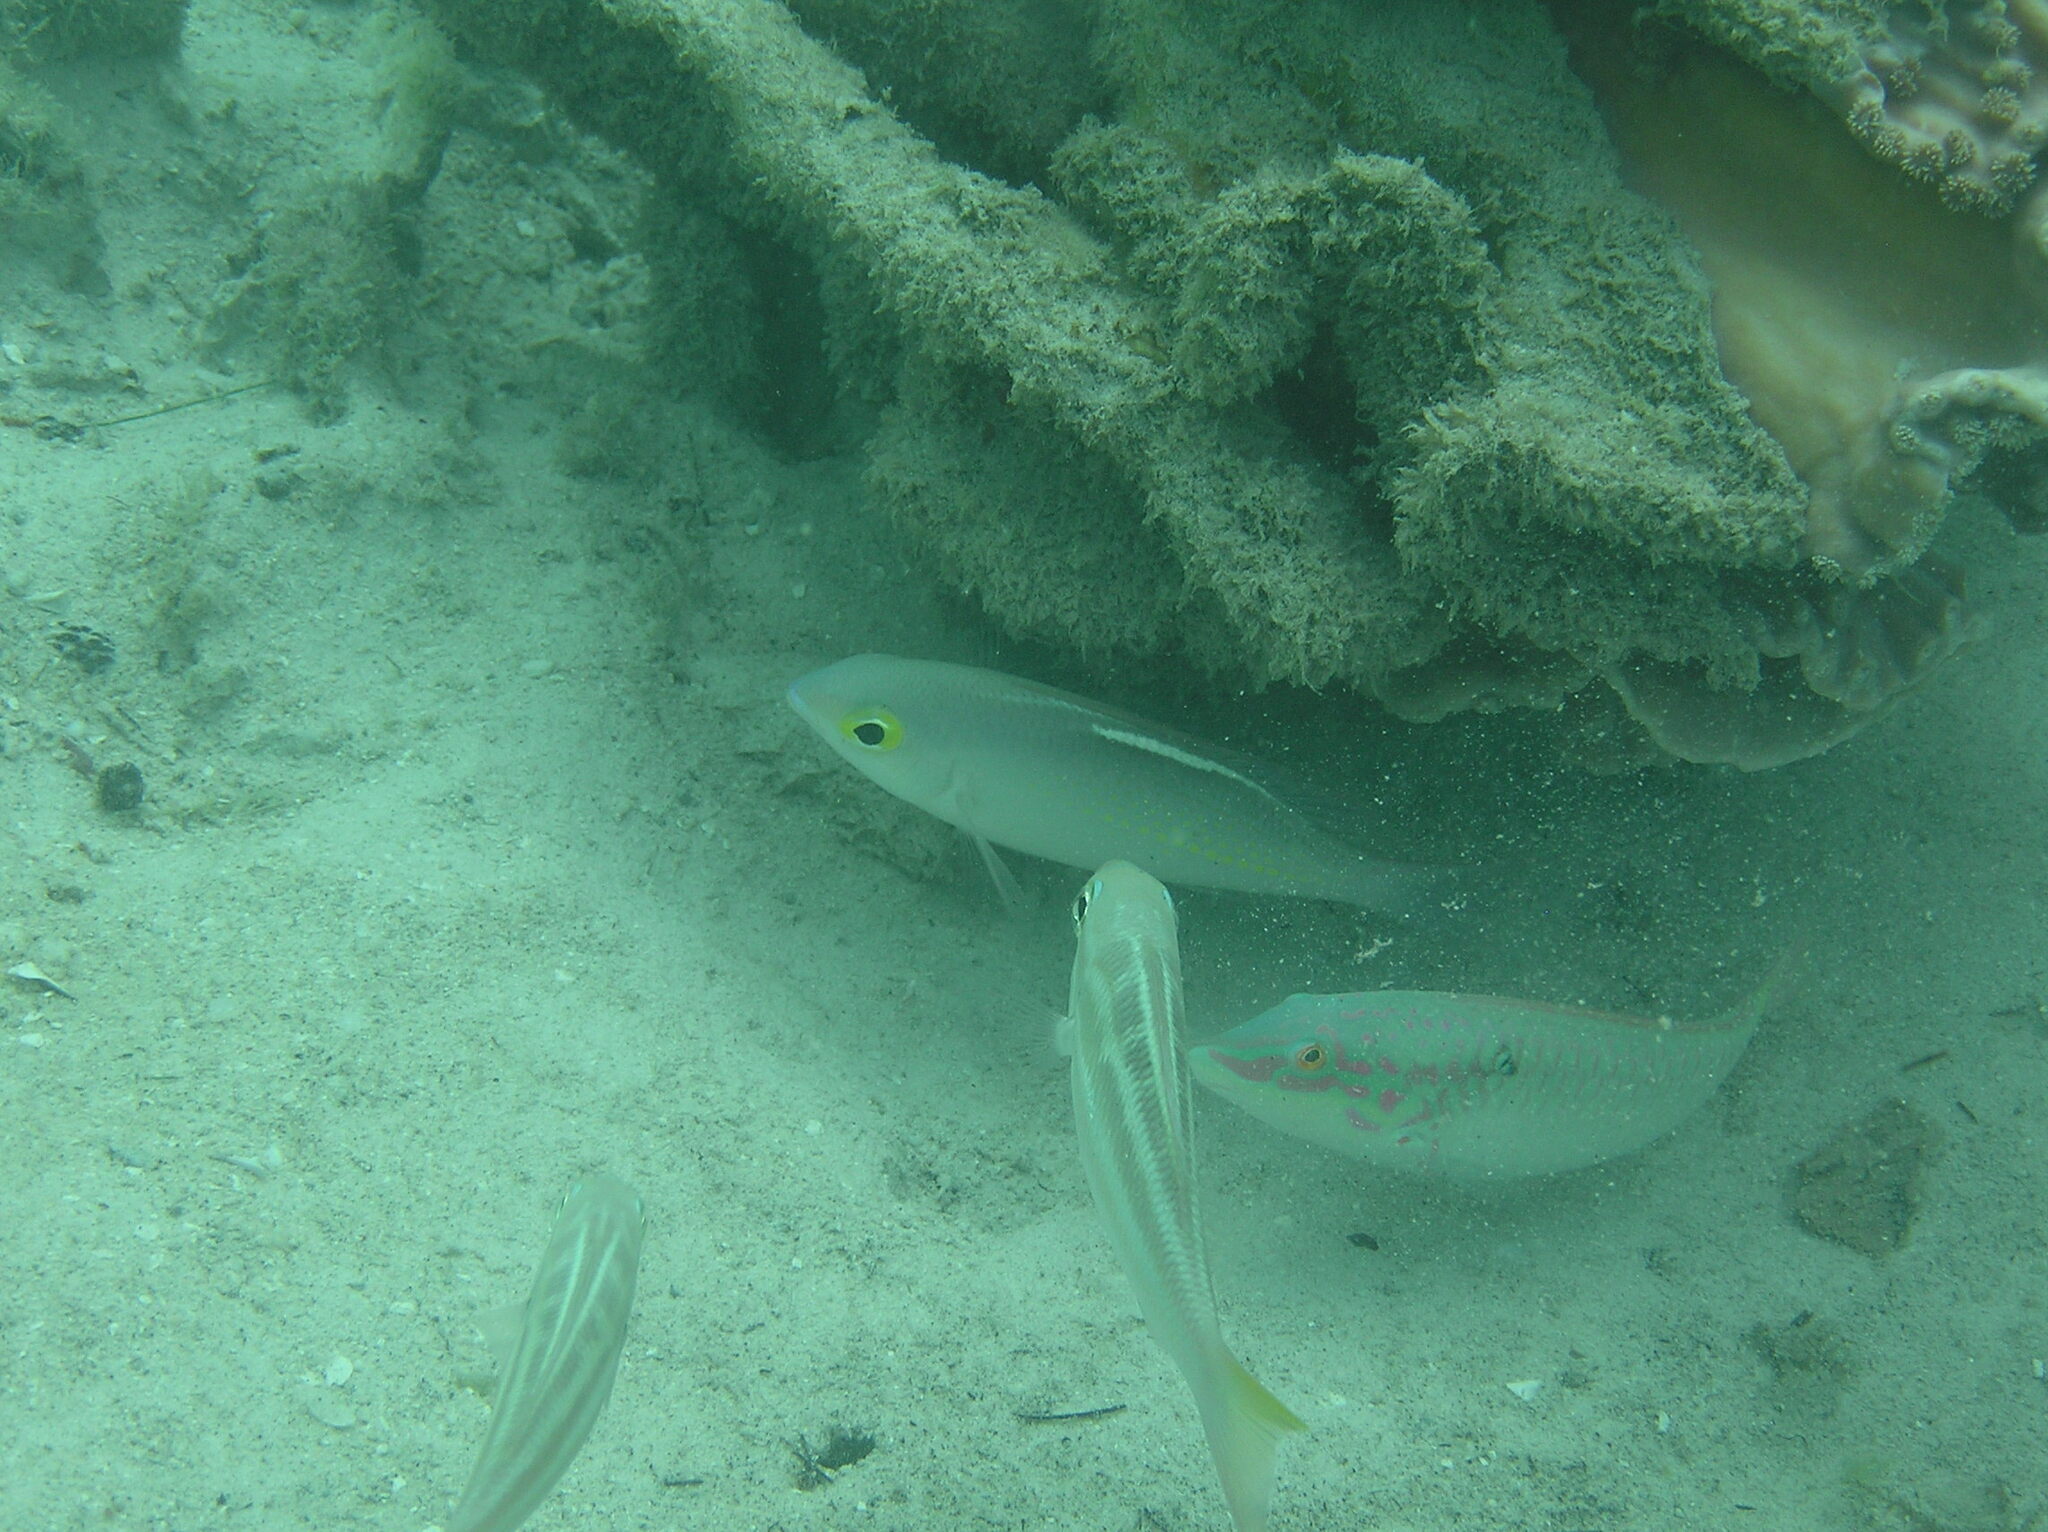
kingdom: Animalia
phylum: Chordata
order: Perciformes
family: Nemipteridae
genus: Scolopsis
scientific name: Scolopsis ciliata
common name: Ciliate spinecheek
